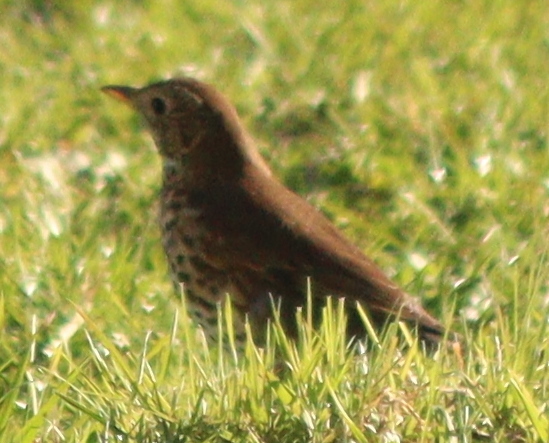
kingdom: Animalia
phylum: Chordata
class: Aves
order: Passeriformes
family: Turdidae
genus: Turdus
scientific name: Turdus philomelos
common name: Song thrush
